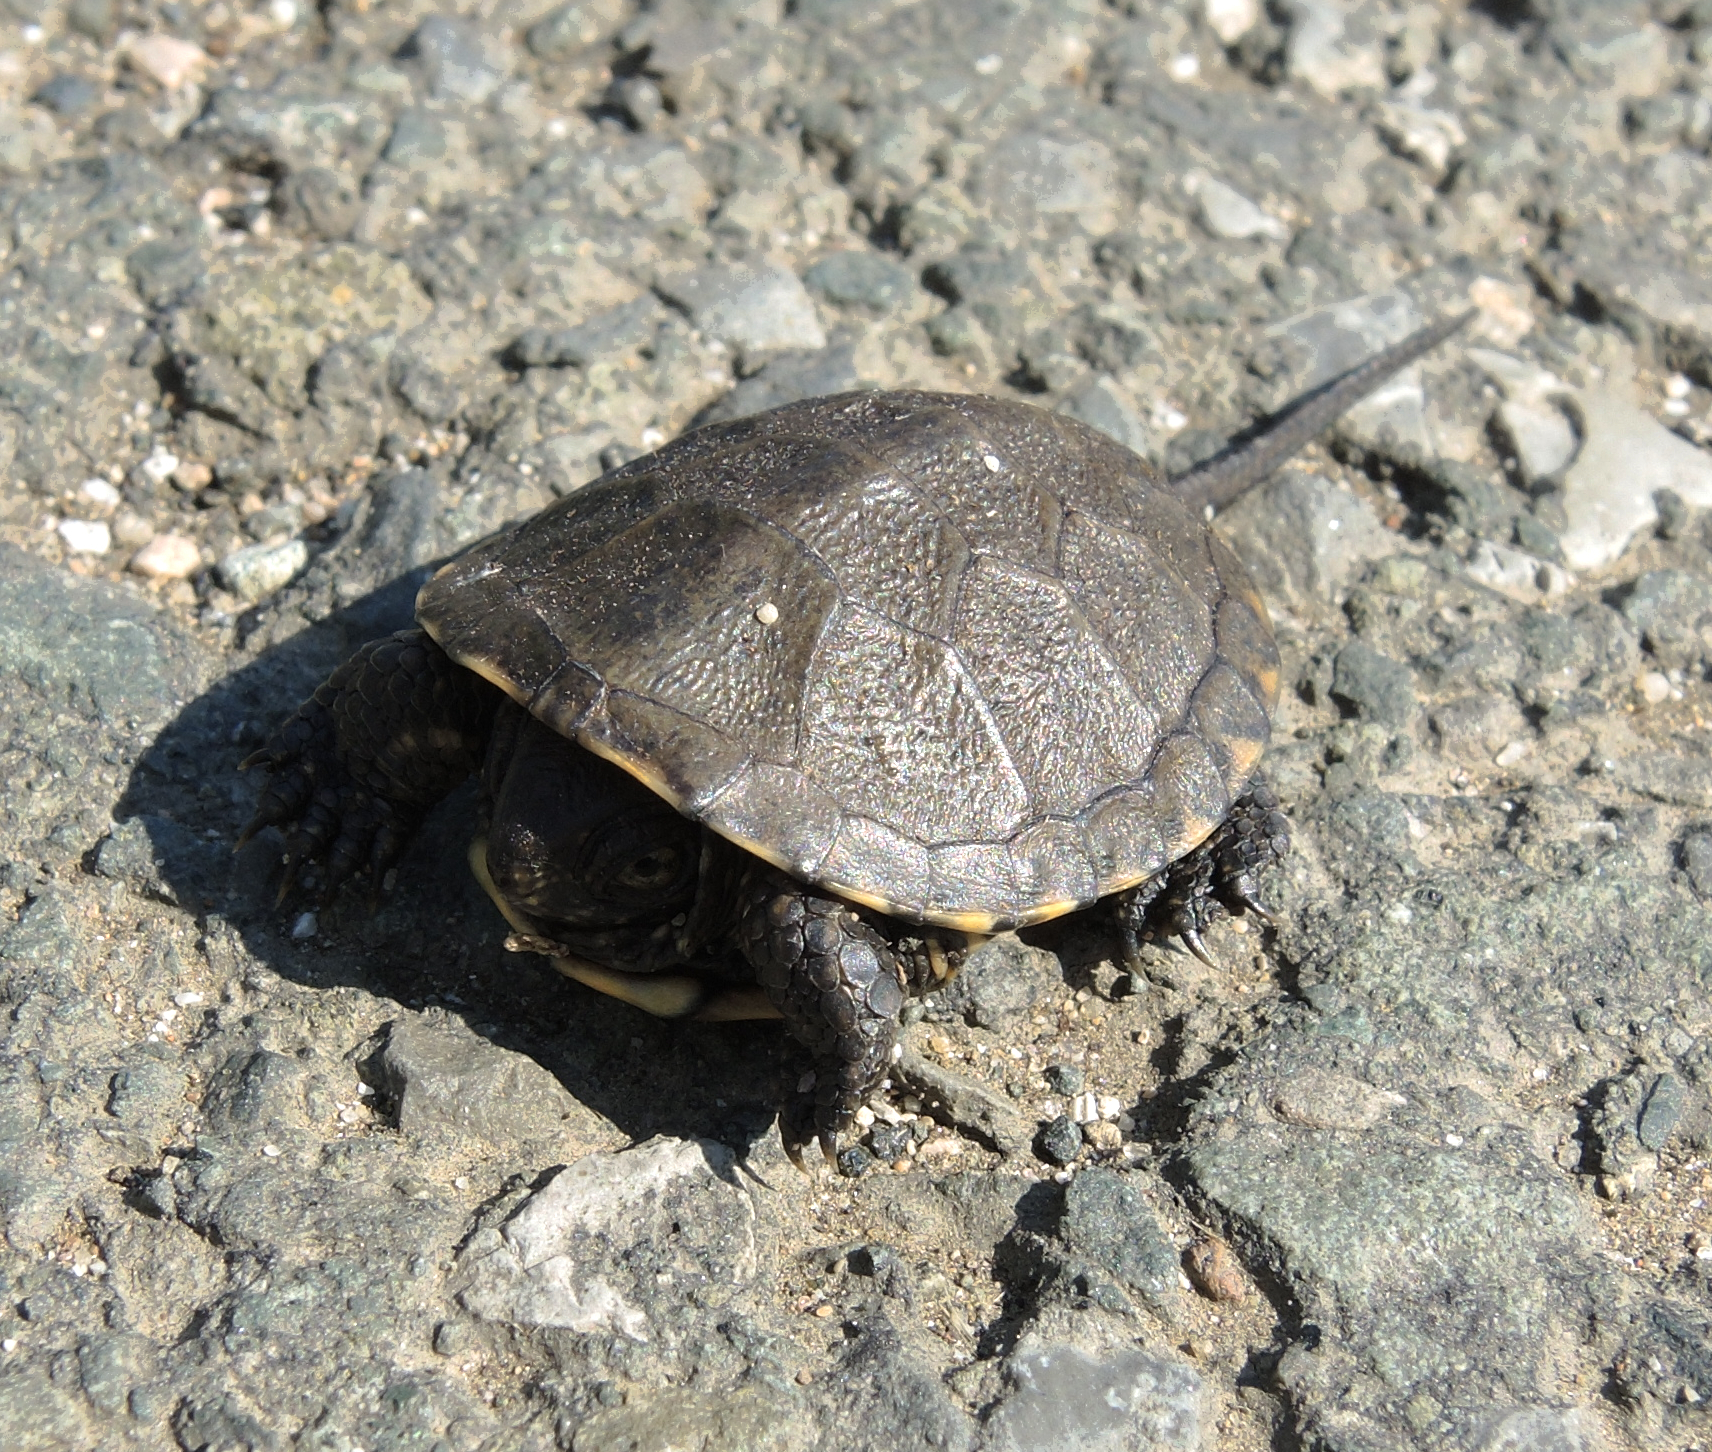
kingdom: Animalia
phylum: Chordata
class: Testudines
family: Emydidae
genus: Emys
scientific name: Emys orbicularis
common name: European pond turtle
